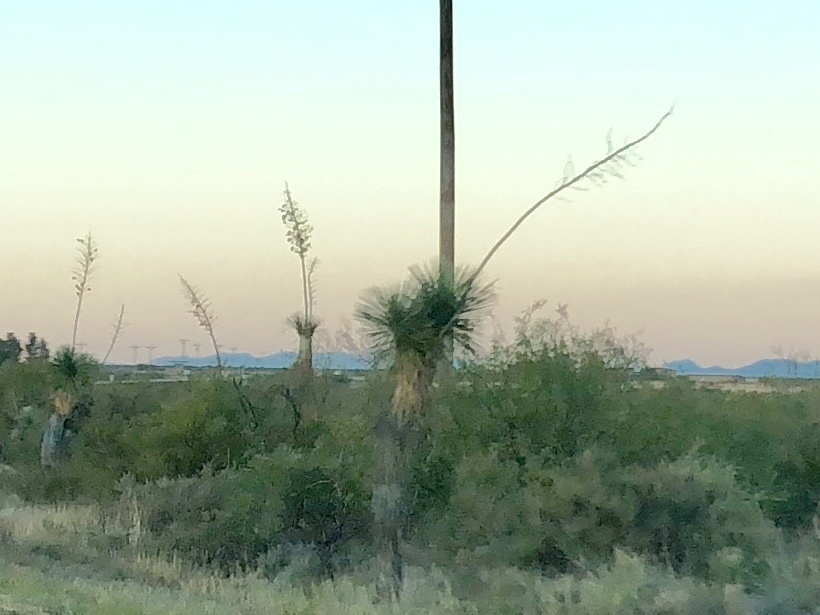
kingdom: Plantae
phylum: Tracheophyta
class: Liliopsida
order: Asparagales
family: Asparagaceae
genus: Yucca
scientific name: Yucca elata
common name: Palmella
